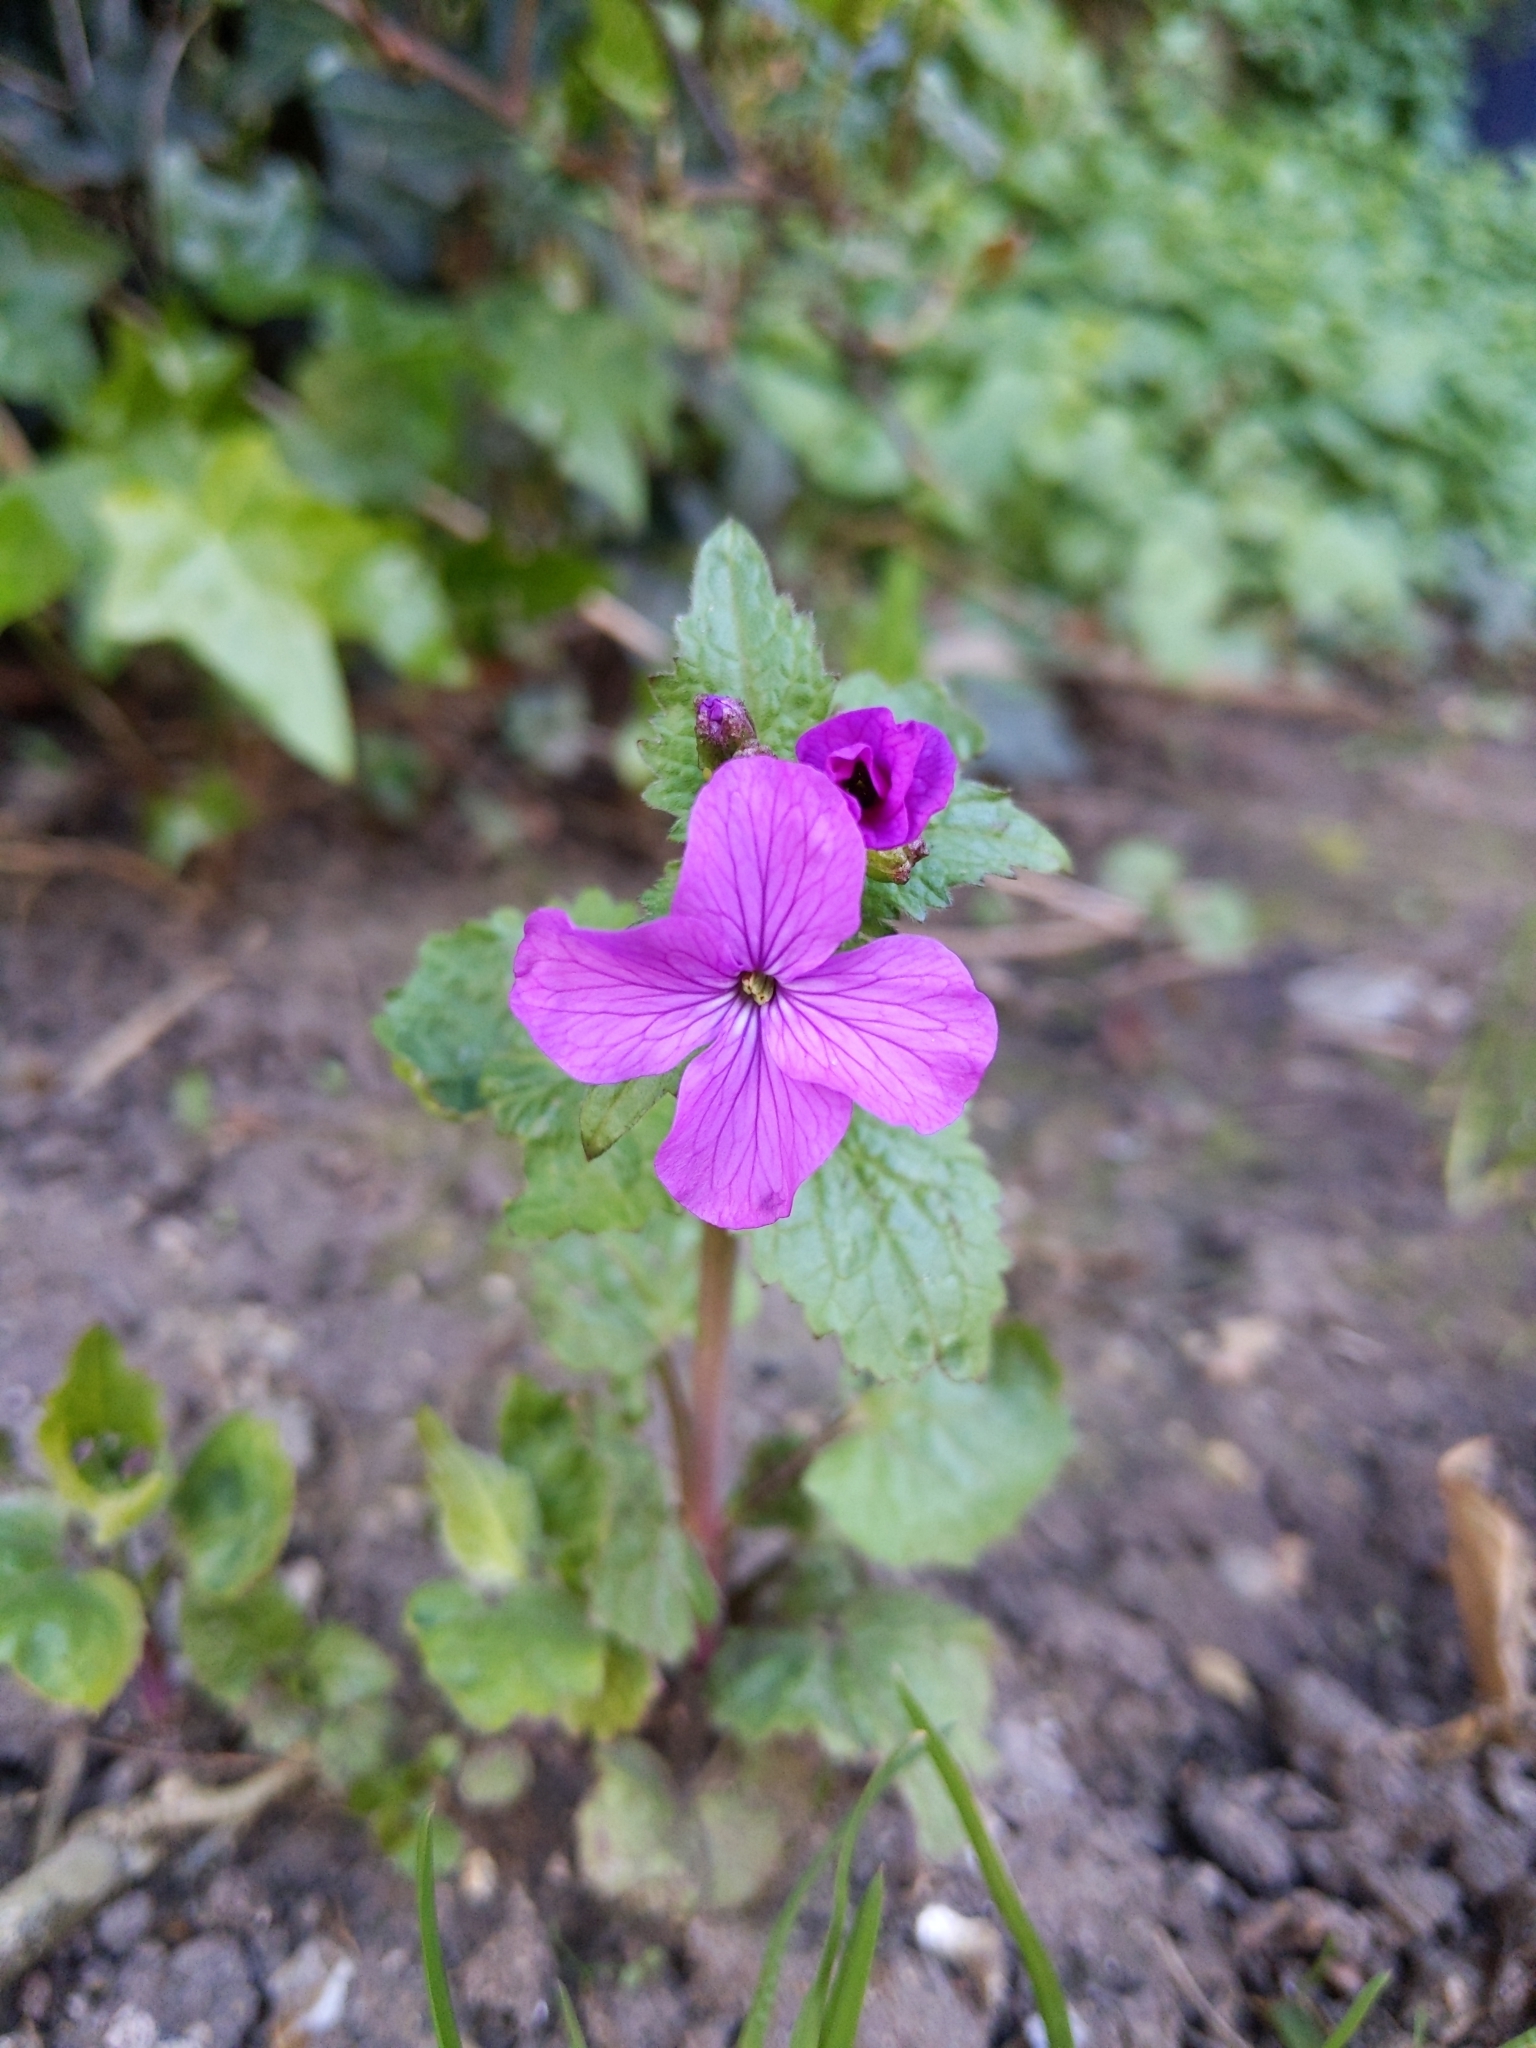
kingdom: Plantae
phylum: Tracheophyta
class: Magnoliopsida
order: Brassicales
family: Brassicaceae
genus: Lunaria
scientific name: Lunaria annua
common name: Honesty
